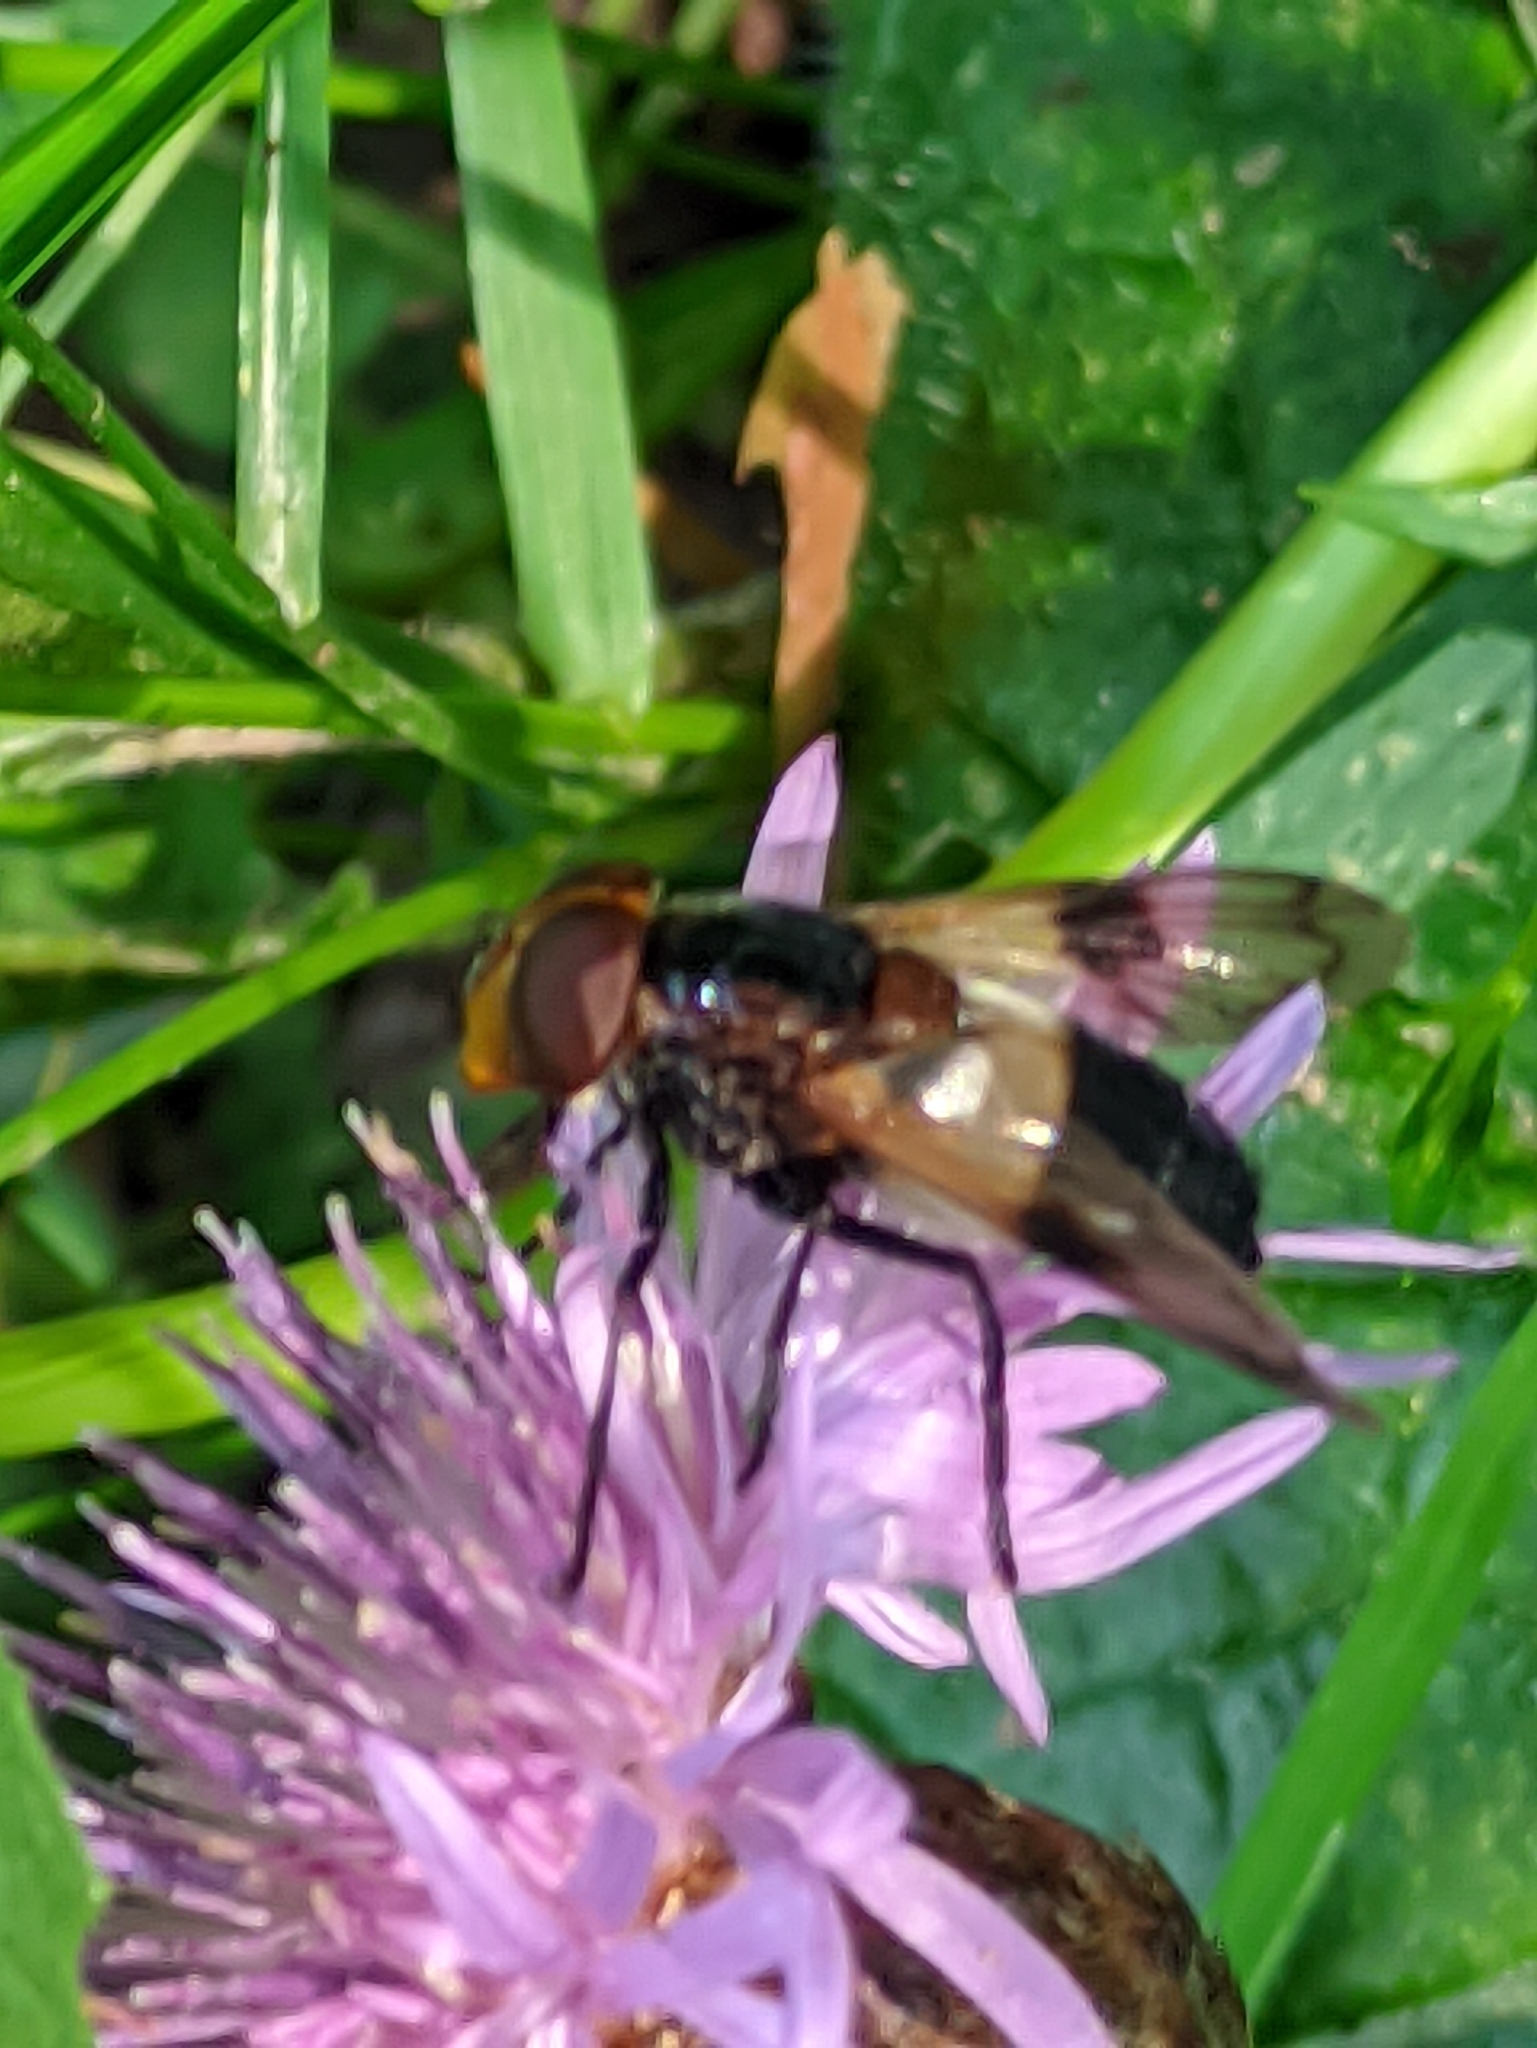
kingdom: Animalia
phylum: Arthropoda
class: Insecta
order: Diptera
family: Syrphidae
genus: Volucella
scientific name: Volucella pellucens
